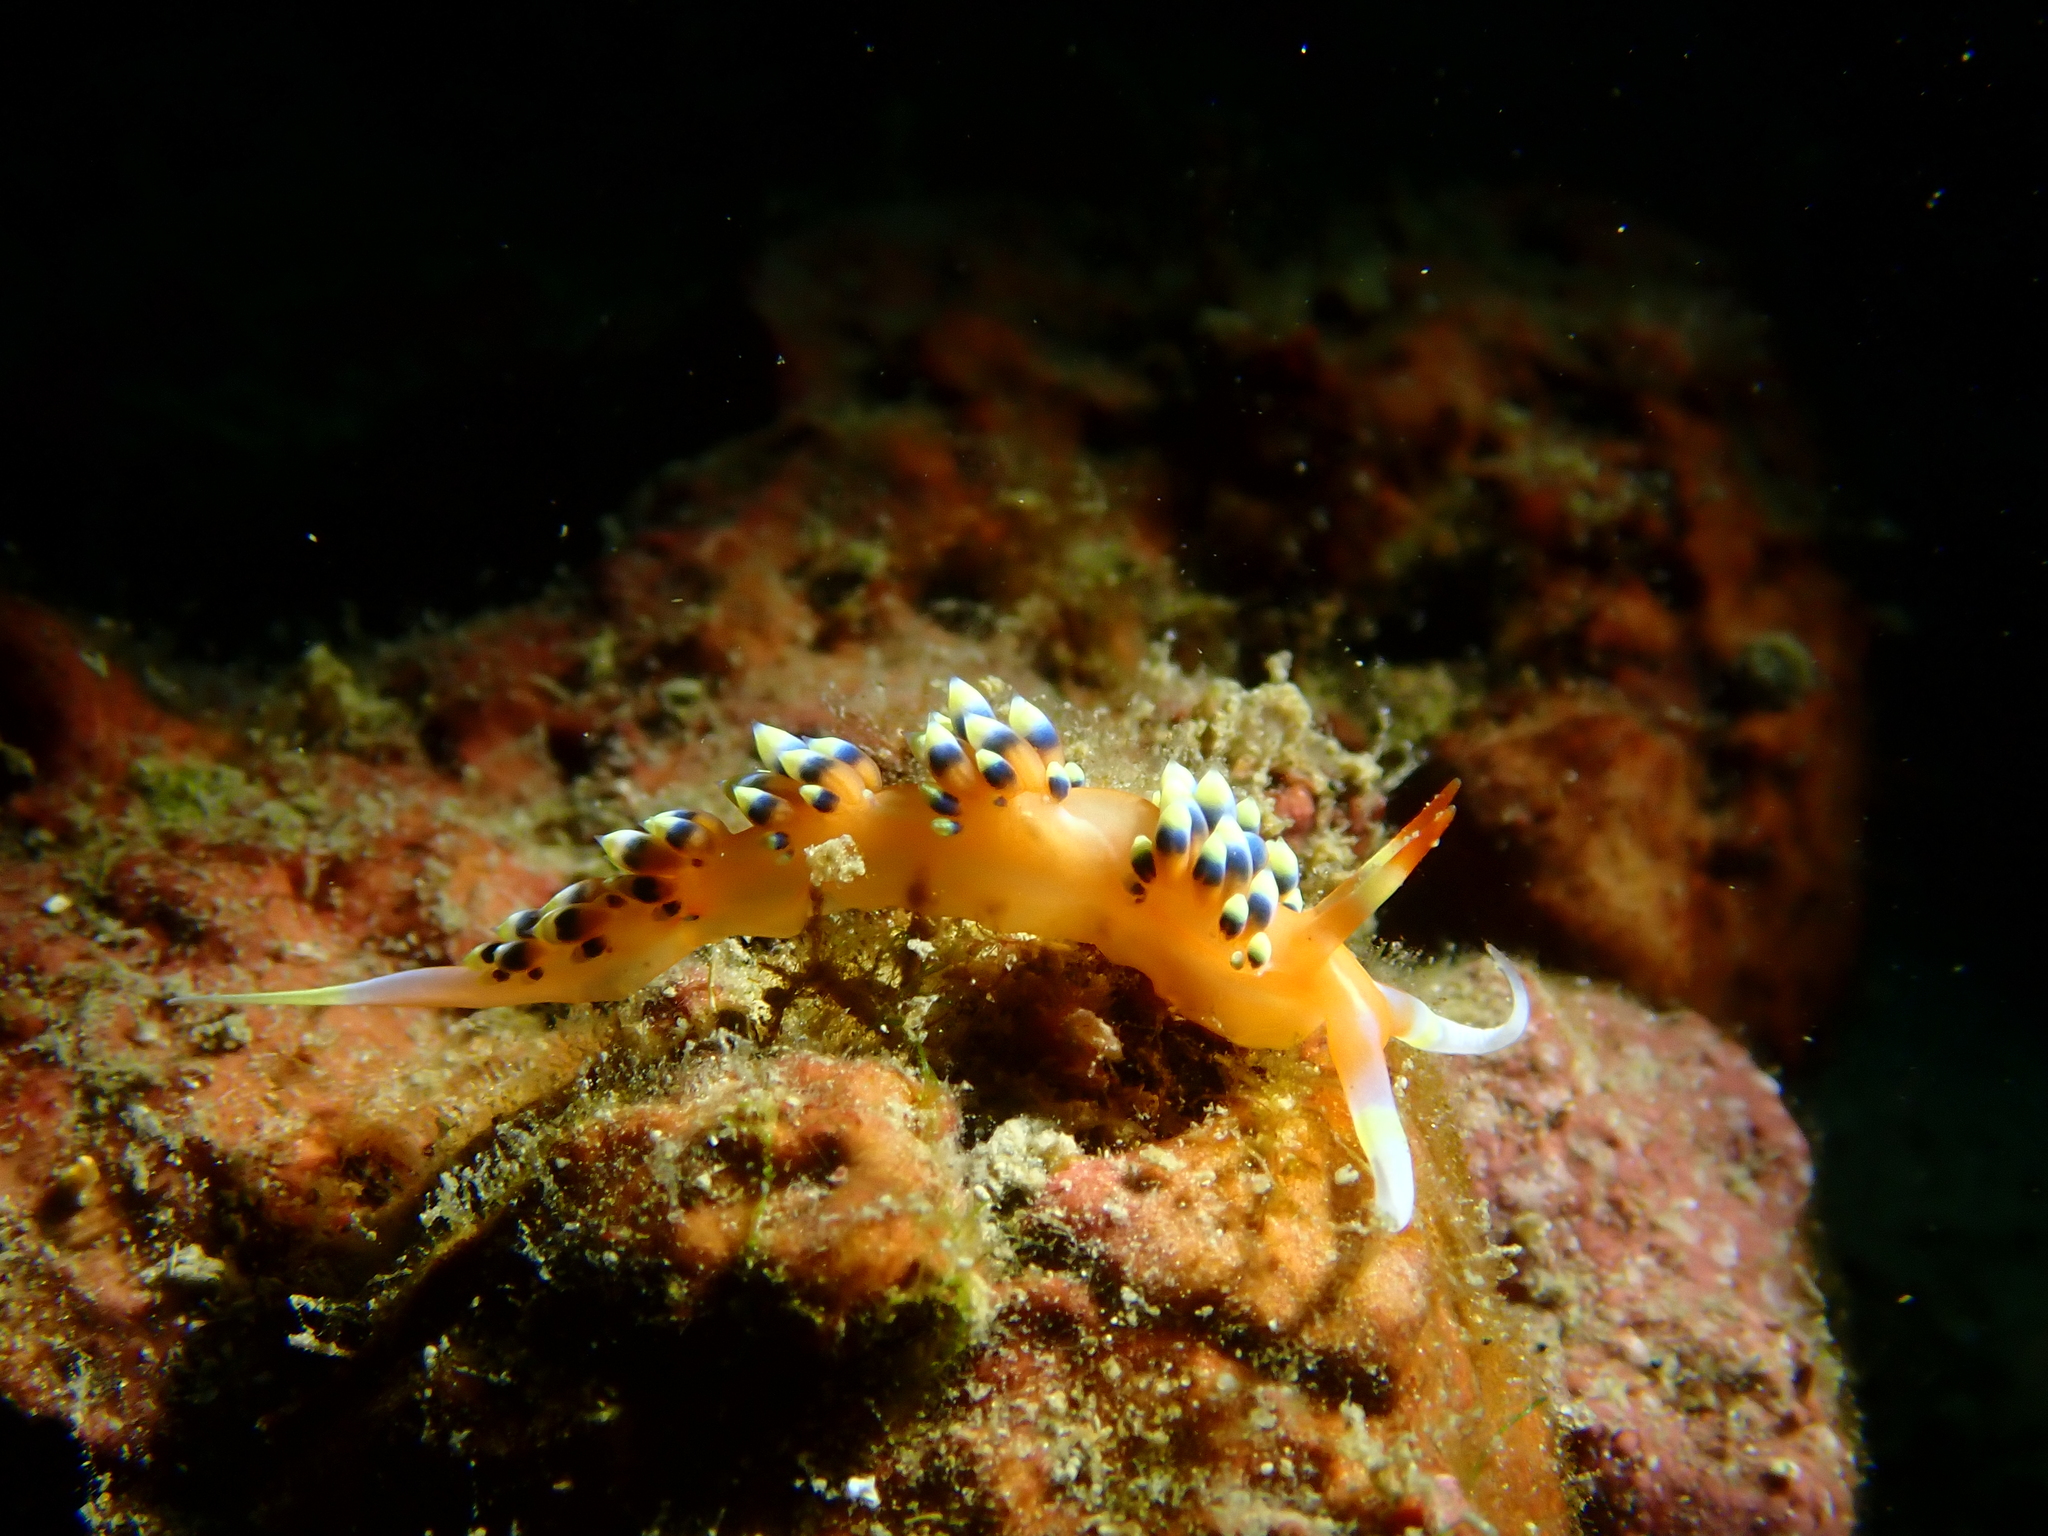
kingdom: Animalia
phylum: Mollusca
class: Gastropoda
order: Nudibranchia
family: Facelinidae
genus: Caloria
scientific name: Caloria indica
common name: Sea slug
